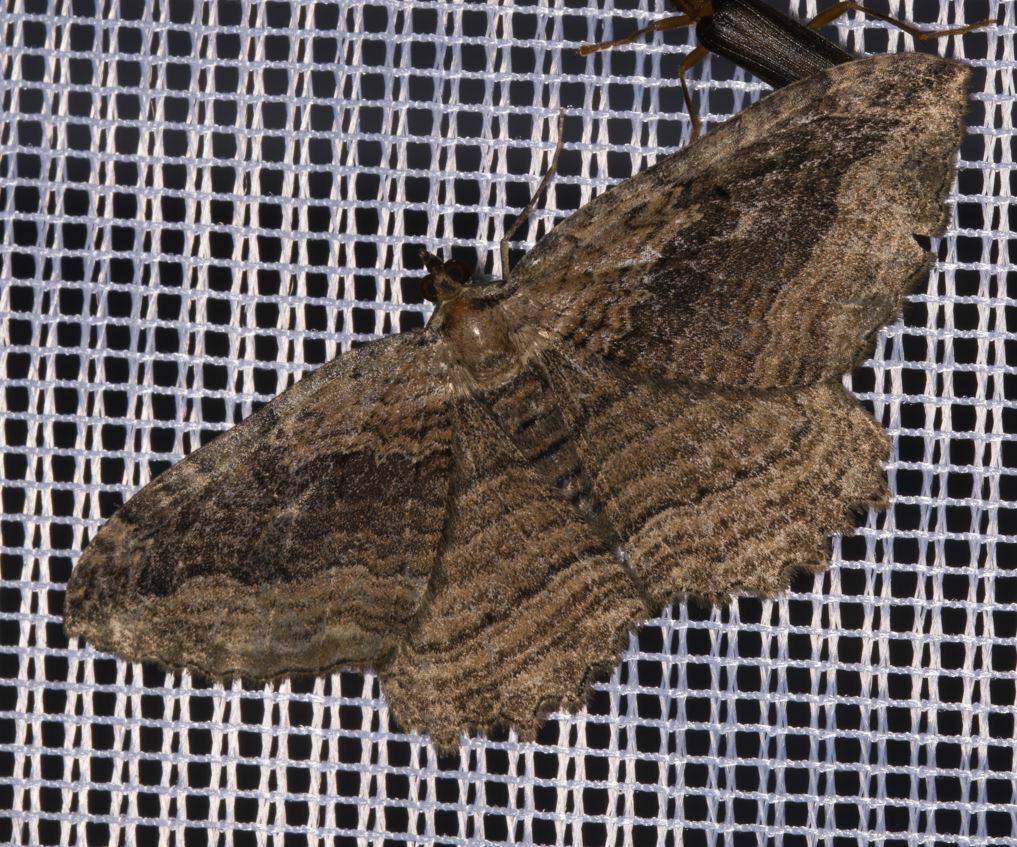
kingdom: Animalia
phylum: Arthropoda
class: Insecta
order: Lepidoptera
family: Geometridae
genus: Philereme
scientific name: Philereme transversata
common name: Dark umber
